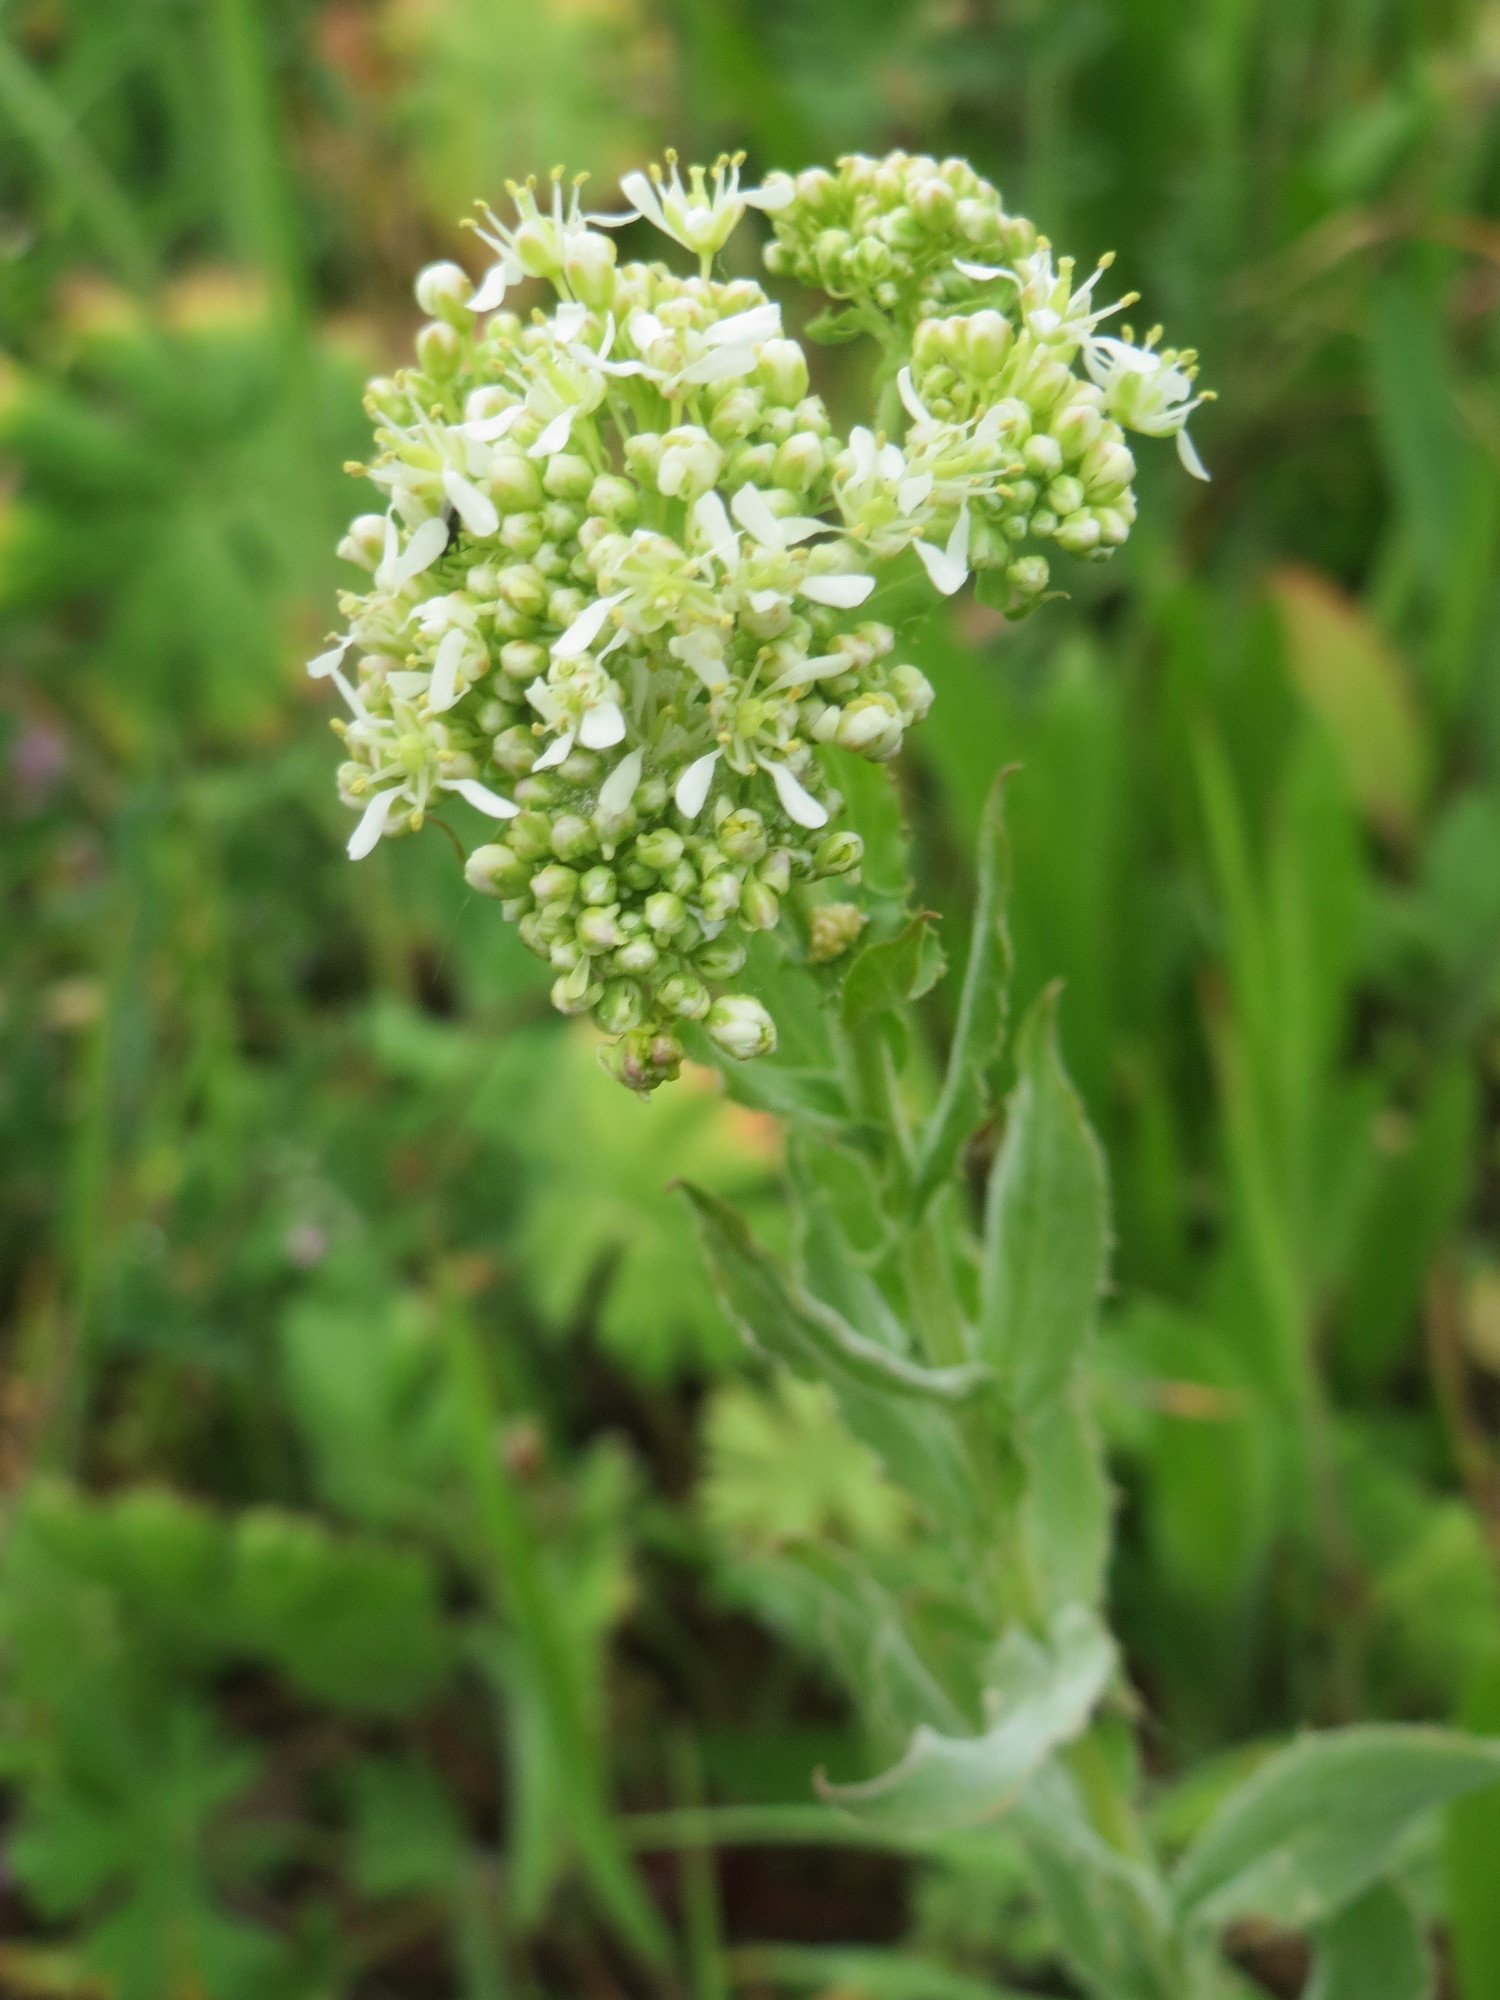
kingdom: Plantae
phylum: Tracheophyta
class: Magnoliopsida
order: Brassicales
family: Brassicaceae
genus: Lepidium
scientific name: Lepidium draba
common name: Hoary cress
